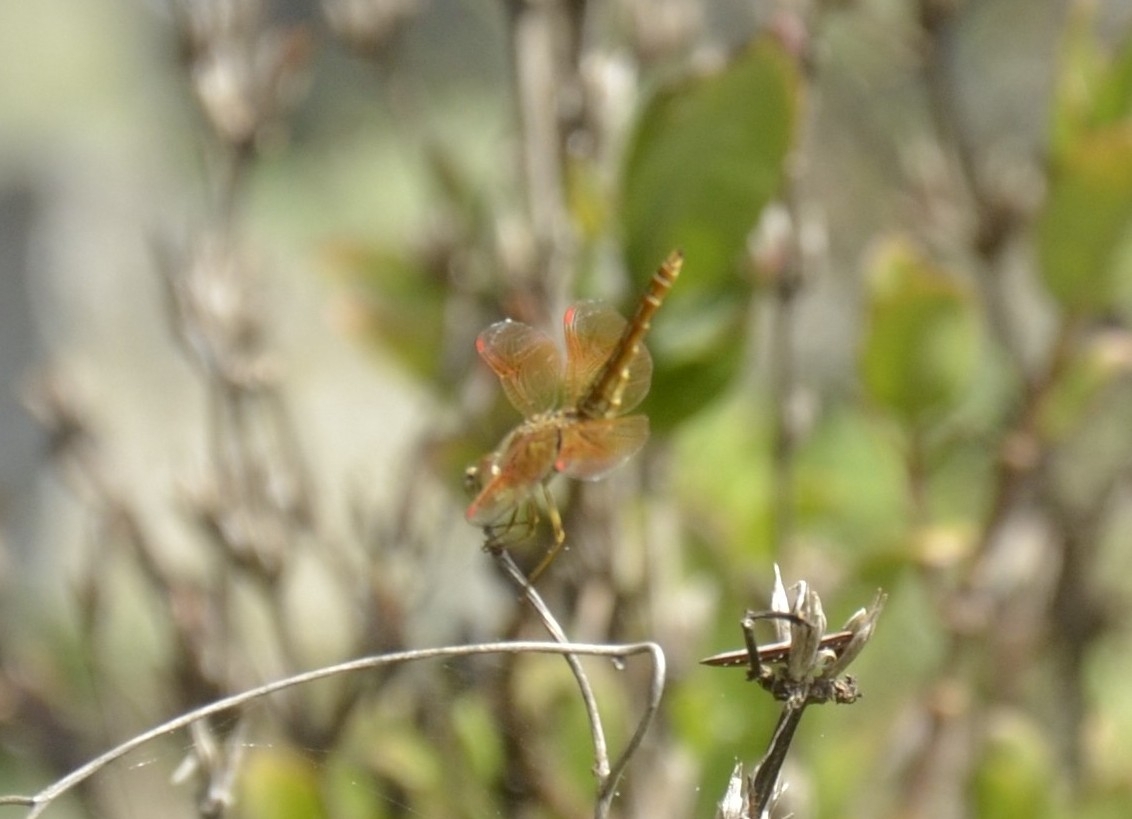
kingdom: Animalia
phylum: Arthropoda
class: Insecta
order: Odonata
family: Libellulidae
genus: Brachythemis
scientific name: Brachythemis contaminata
